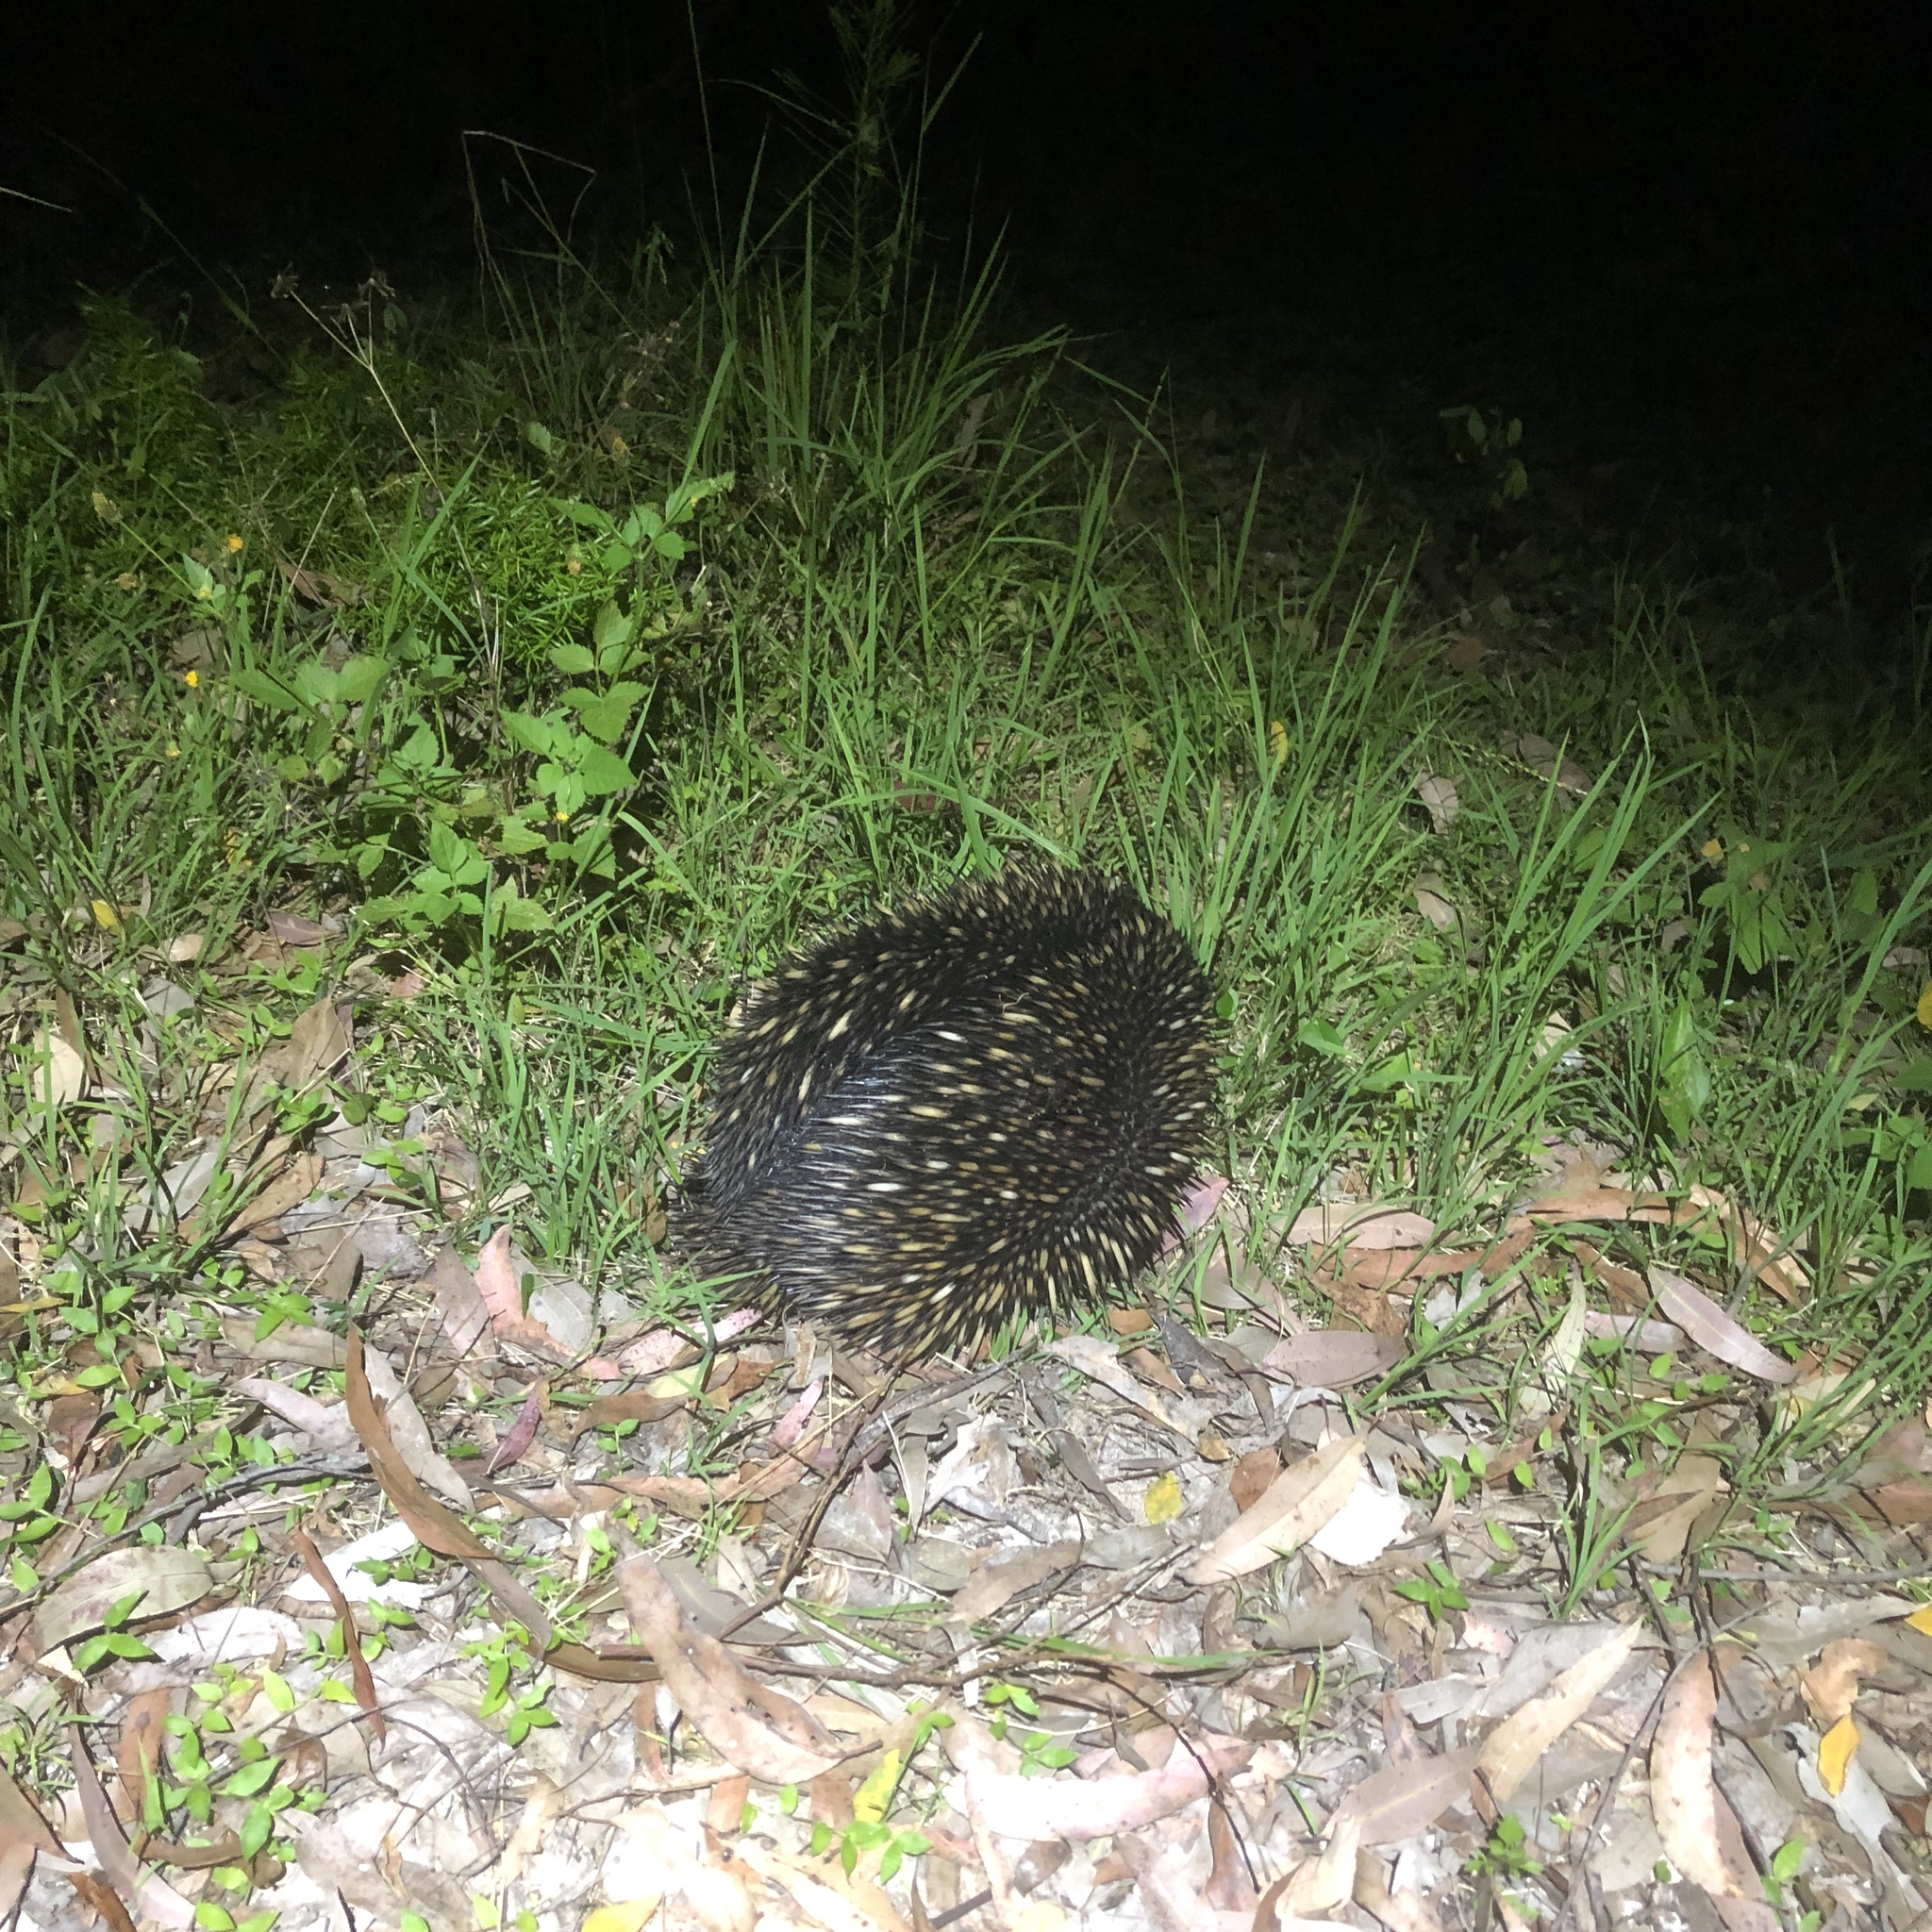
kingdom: Animalia
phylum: Chordata
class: Mammalia
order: Monotremata
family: Tachyglossidae
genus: Tachyglossus
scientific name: Tachyglossus aculeatus
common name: Short-beaked echidna
